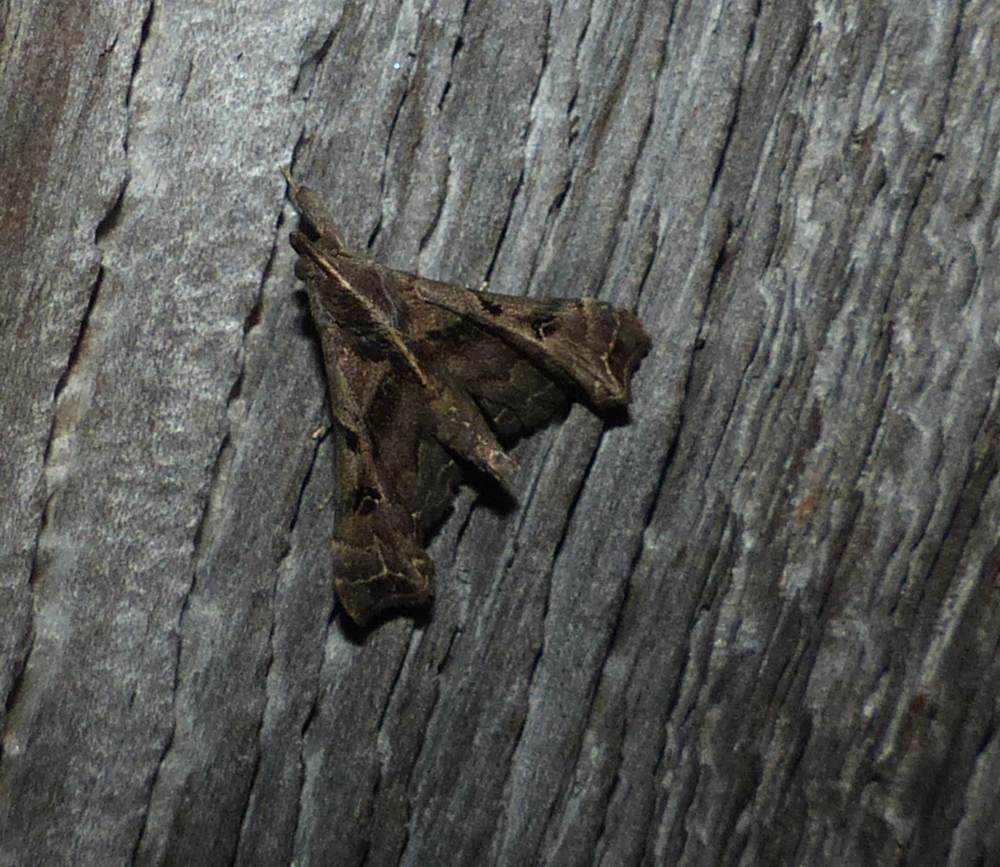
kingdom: Animalia
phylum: Arthropoda
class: Insecta
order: Lepidoptera
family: Erebidae
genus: Palthis
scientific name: Palthis asopialis
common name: Faint-spotted palthis moth
